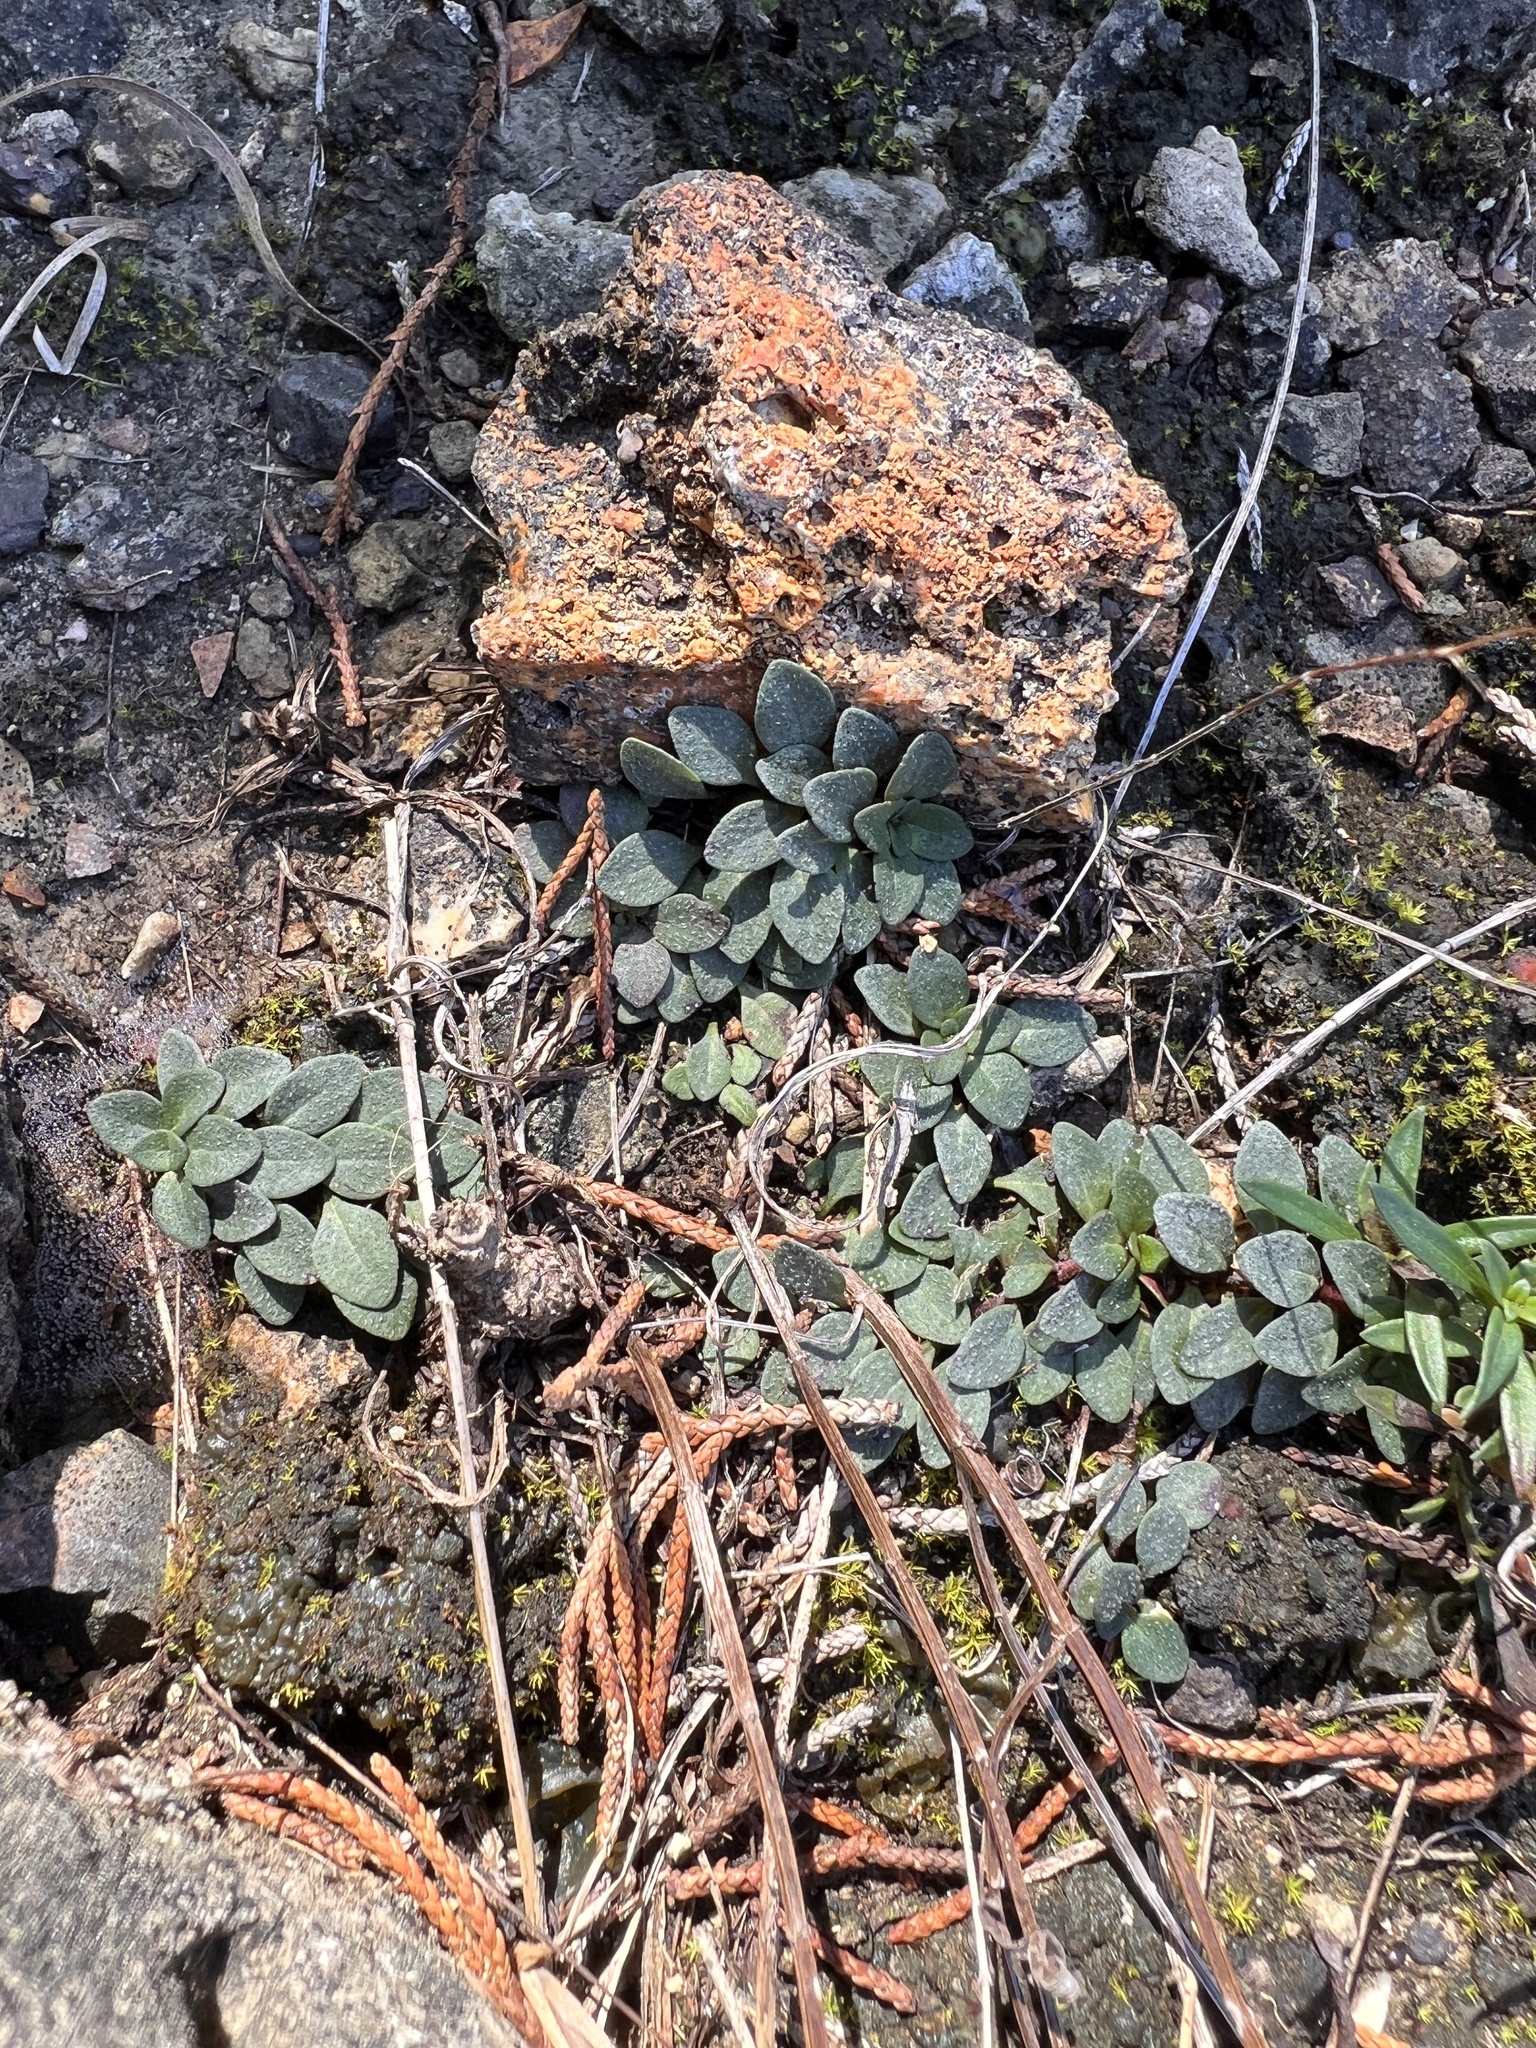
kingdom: Plantae
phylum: Tracheophyta
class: Magnoliopsida
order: Lamiales
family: Lamiaceae
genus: Clinopodium
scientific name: Clinopodium arkansanum
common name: Limestone calamint
